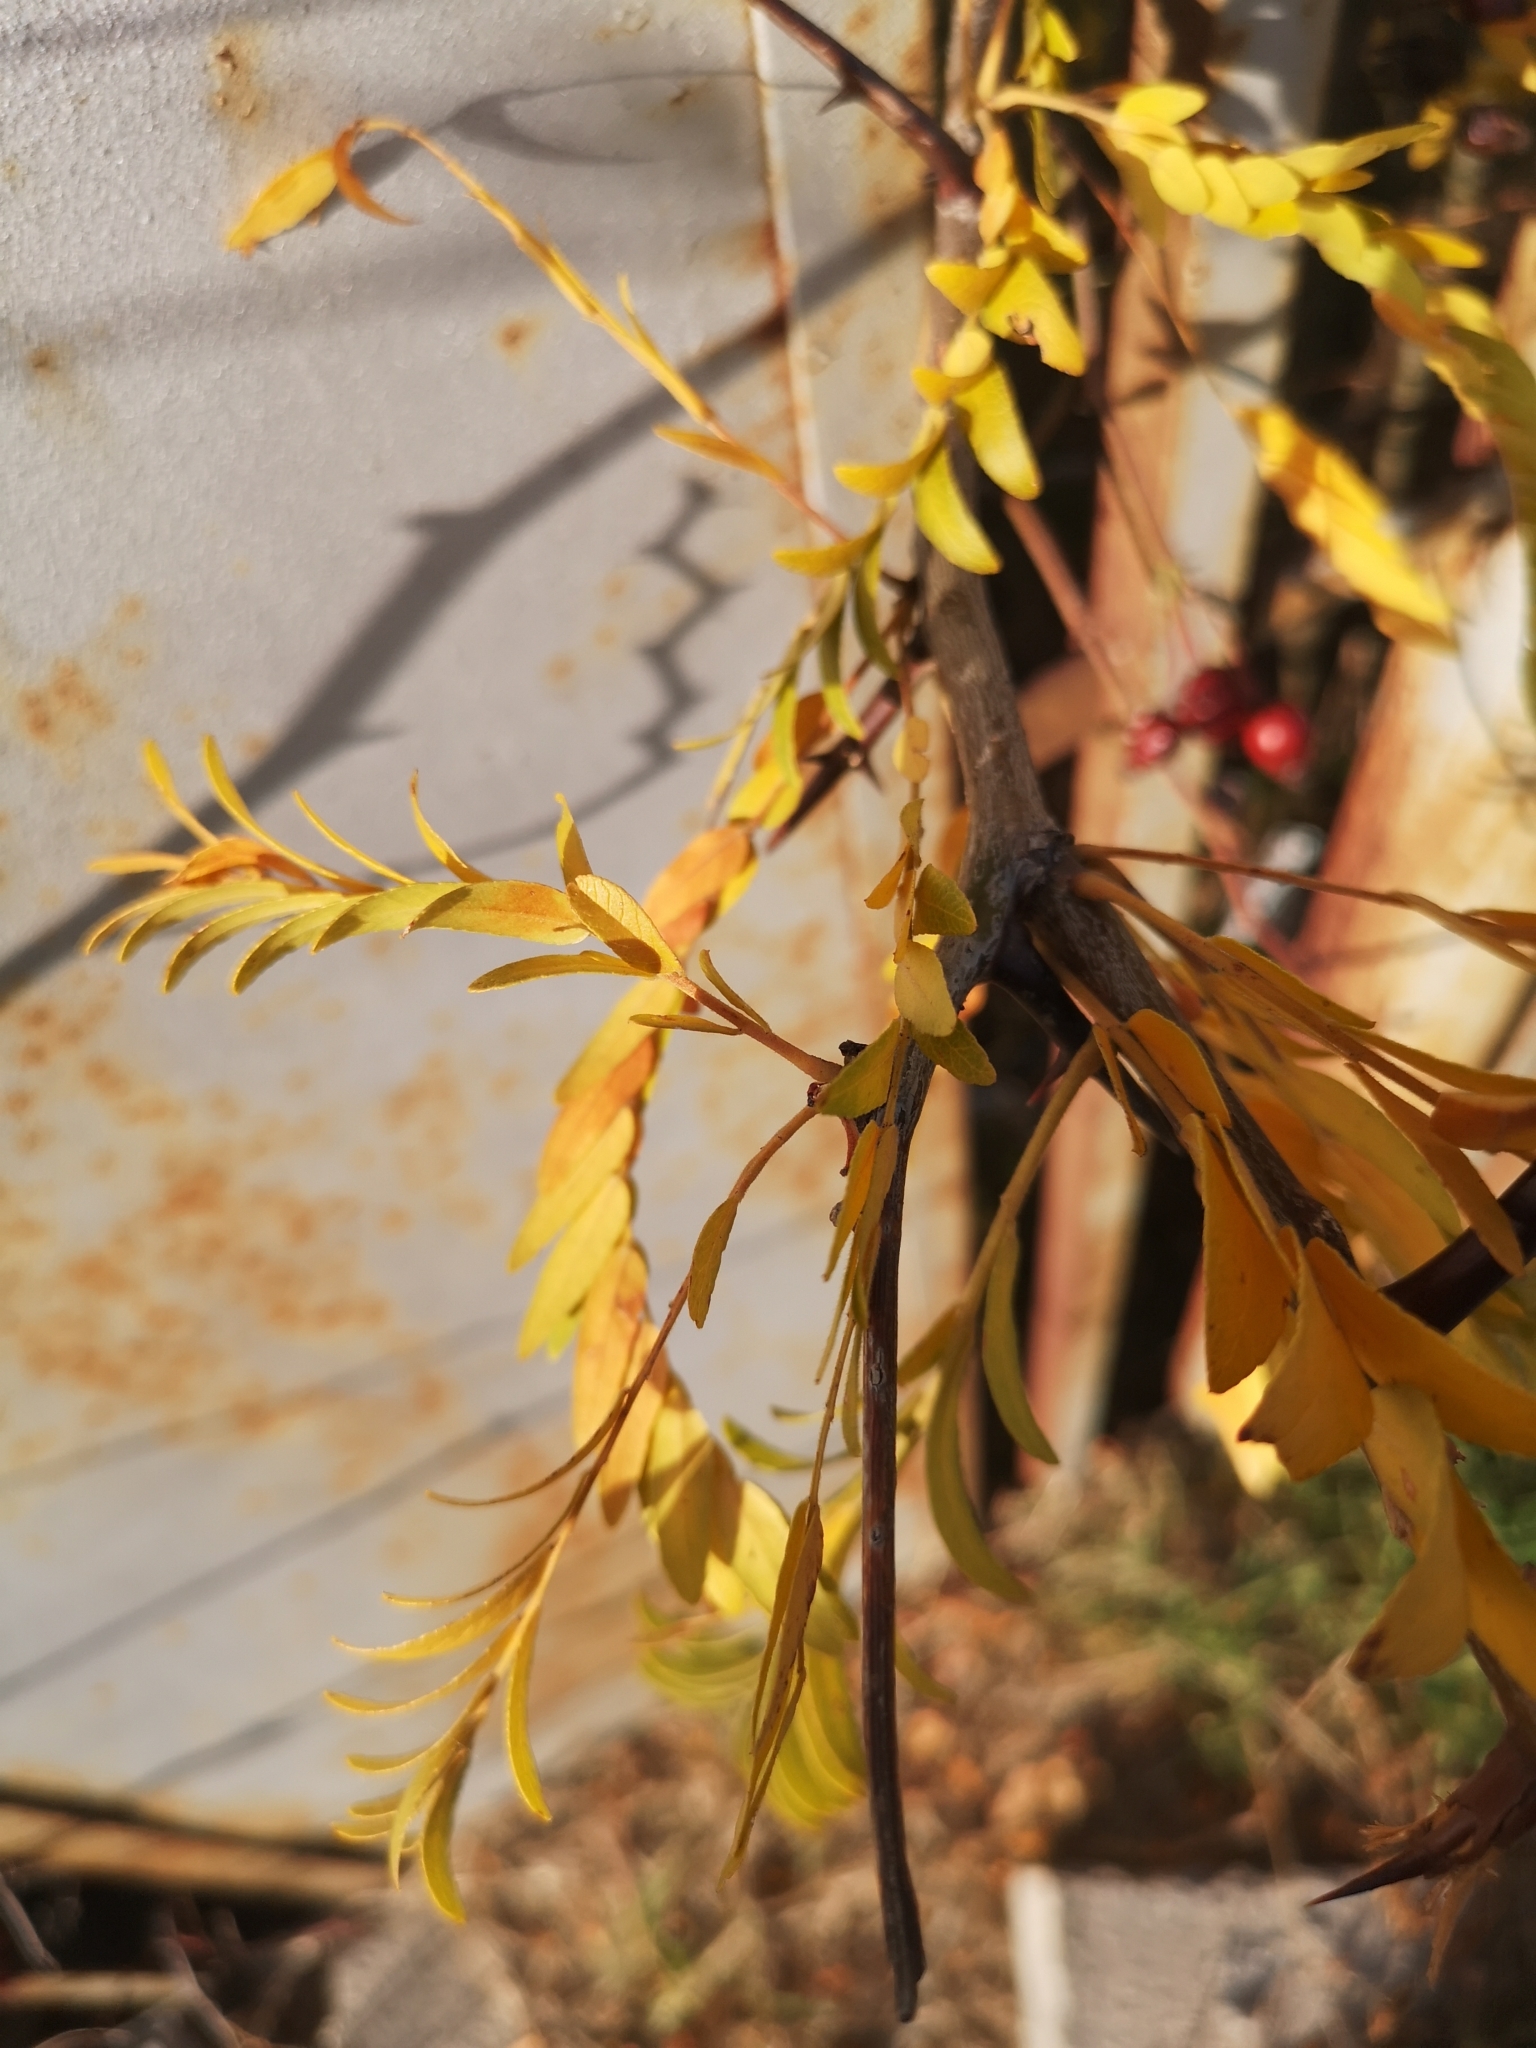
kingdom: Plantae
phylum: Tracheophyta
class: Magnoliopsida
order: Fabales
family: Fabaceae
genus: Gleditsia
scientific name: Gleditsia triacanthos
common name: Common honeylocust
